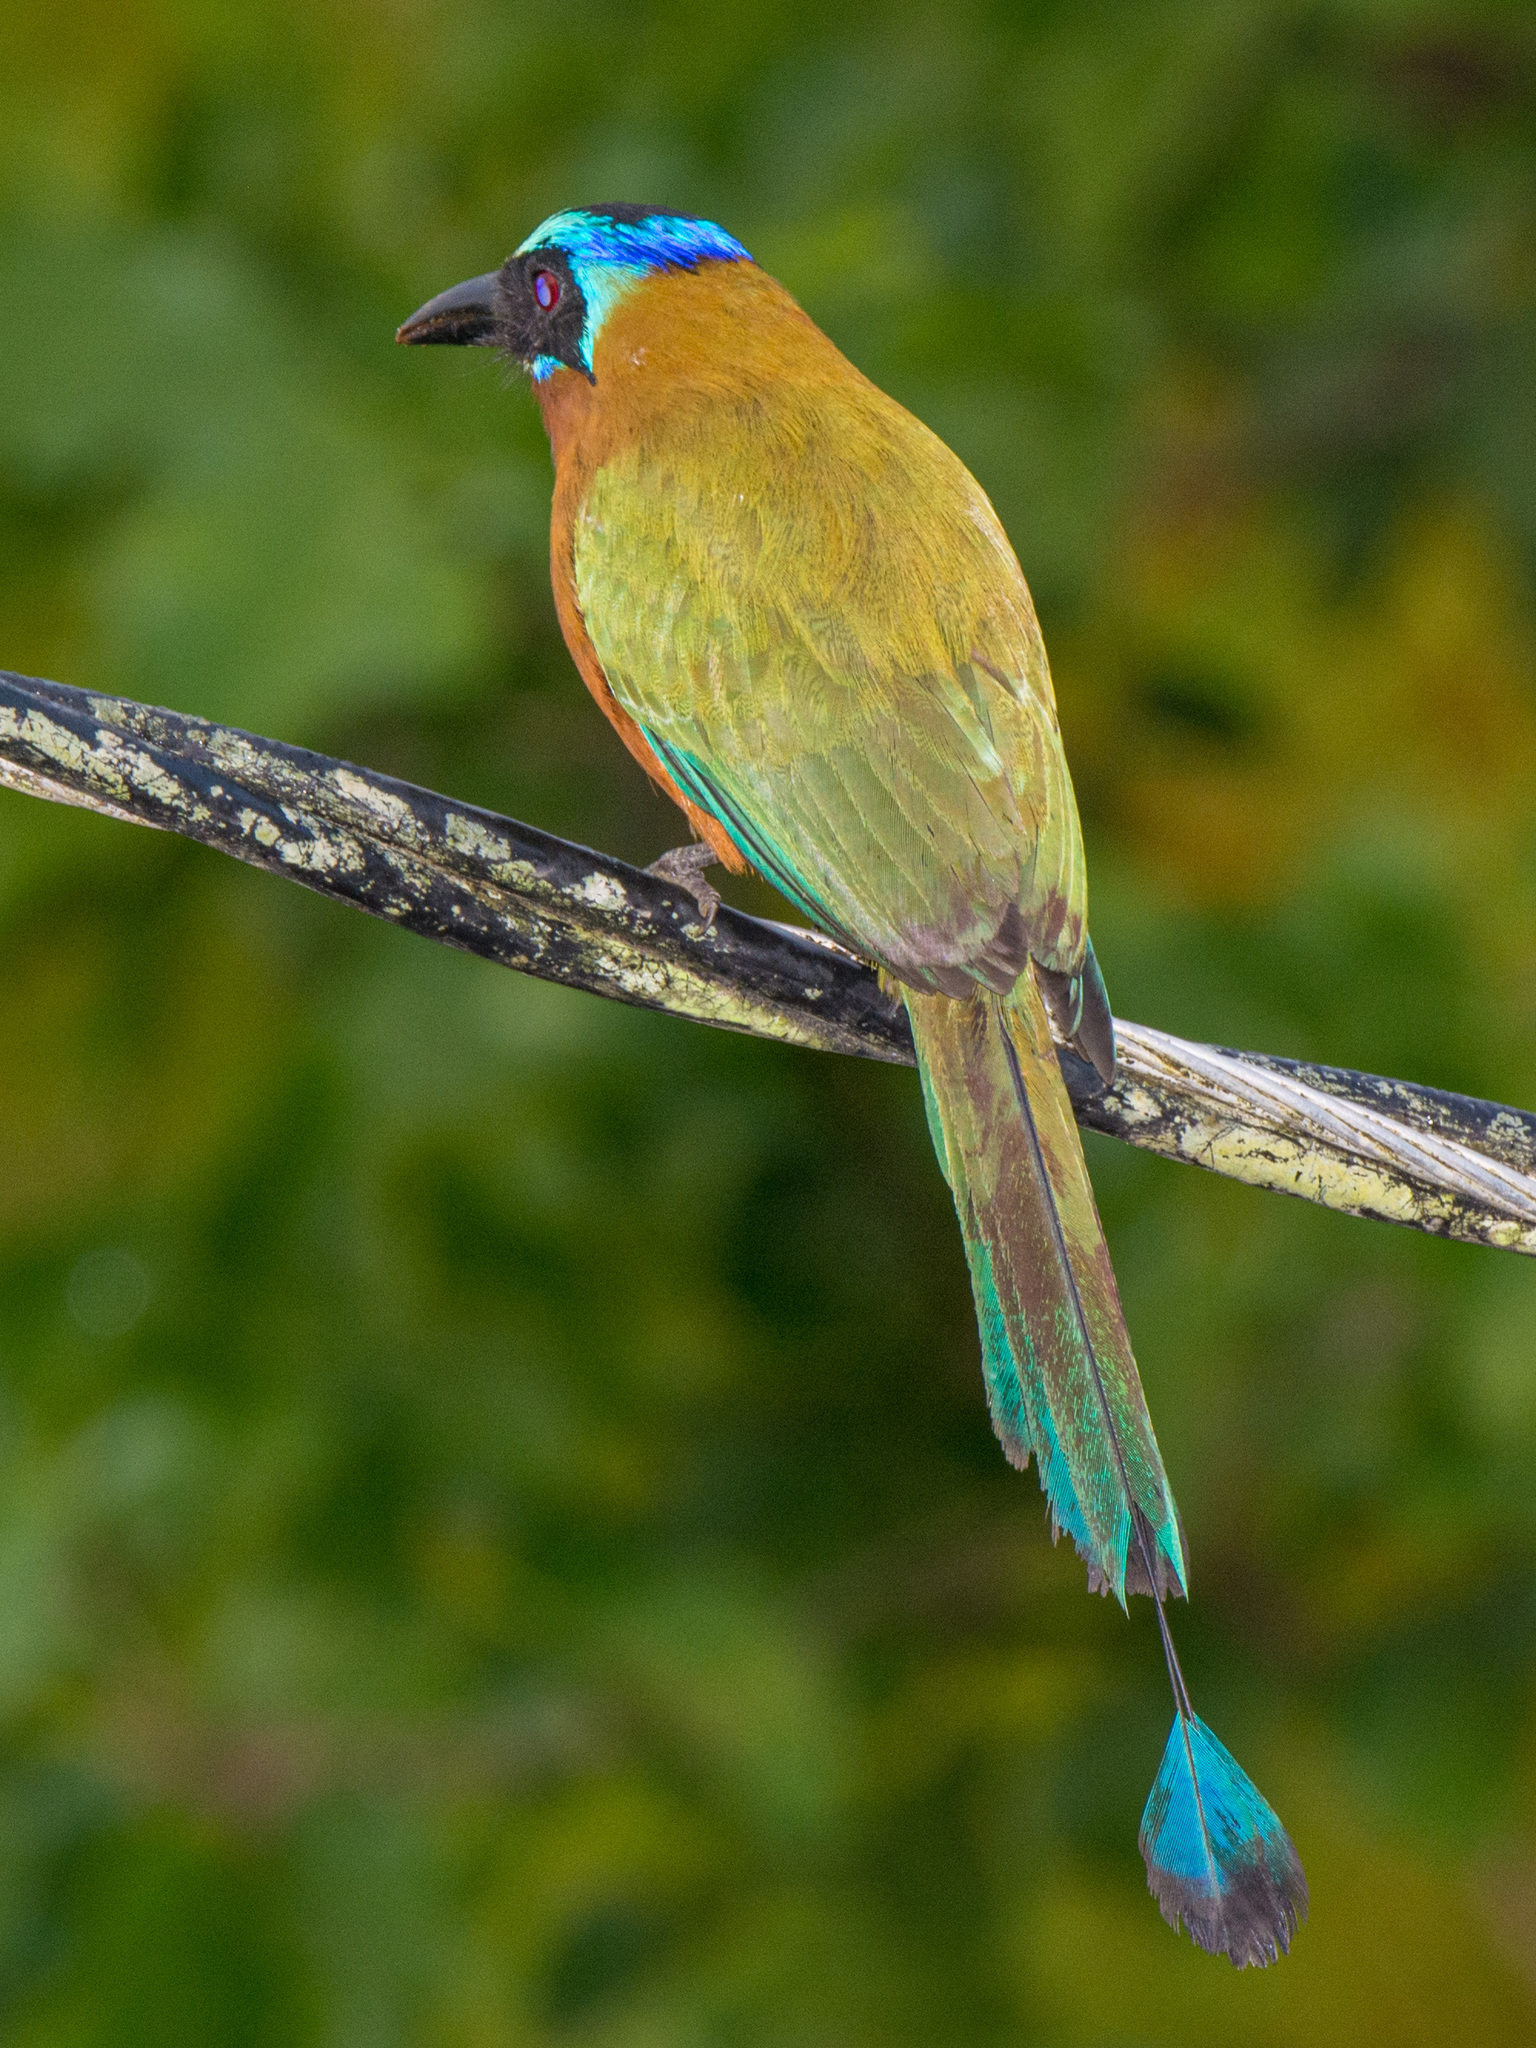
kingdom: Animalia
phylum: Chordata
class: Aves
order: Coraciiformes
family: Momotidae
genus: Momotus
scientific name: Momotus bahamensis
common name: Trinidad motmot
